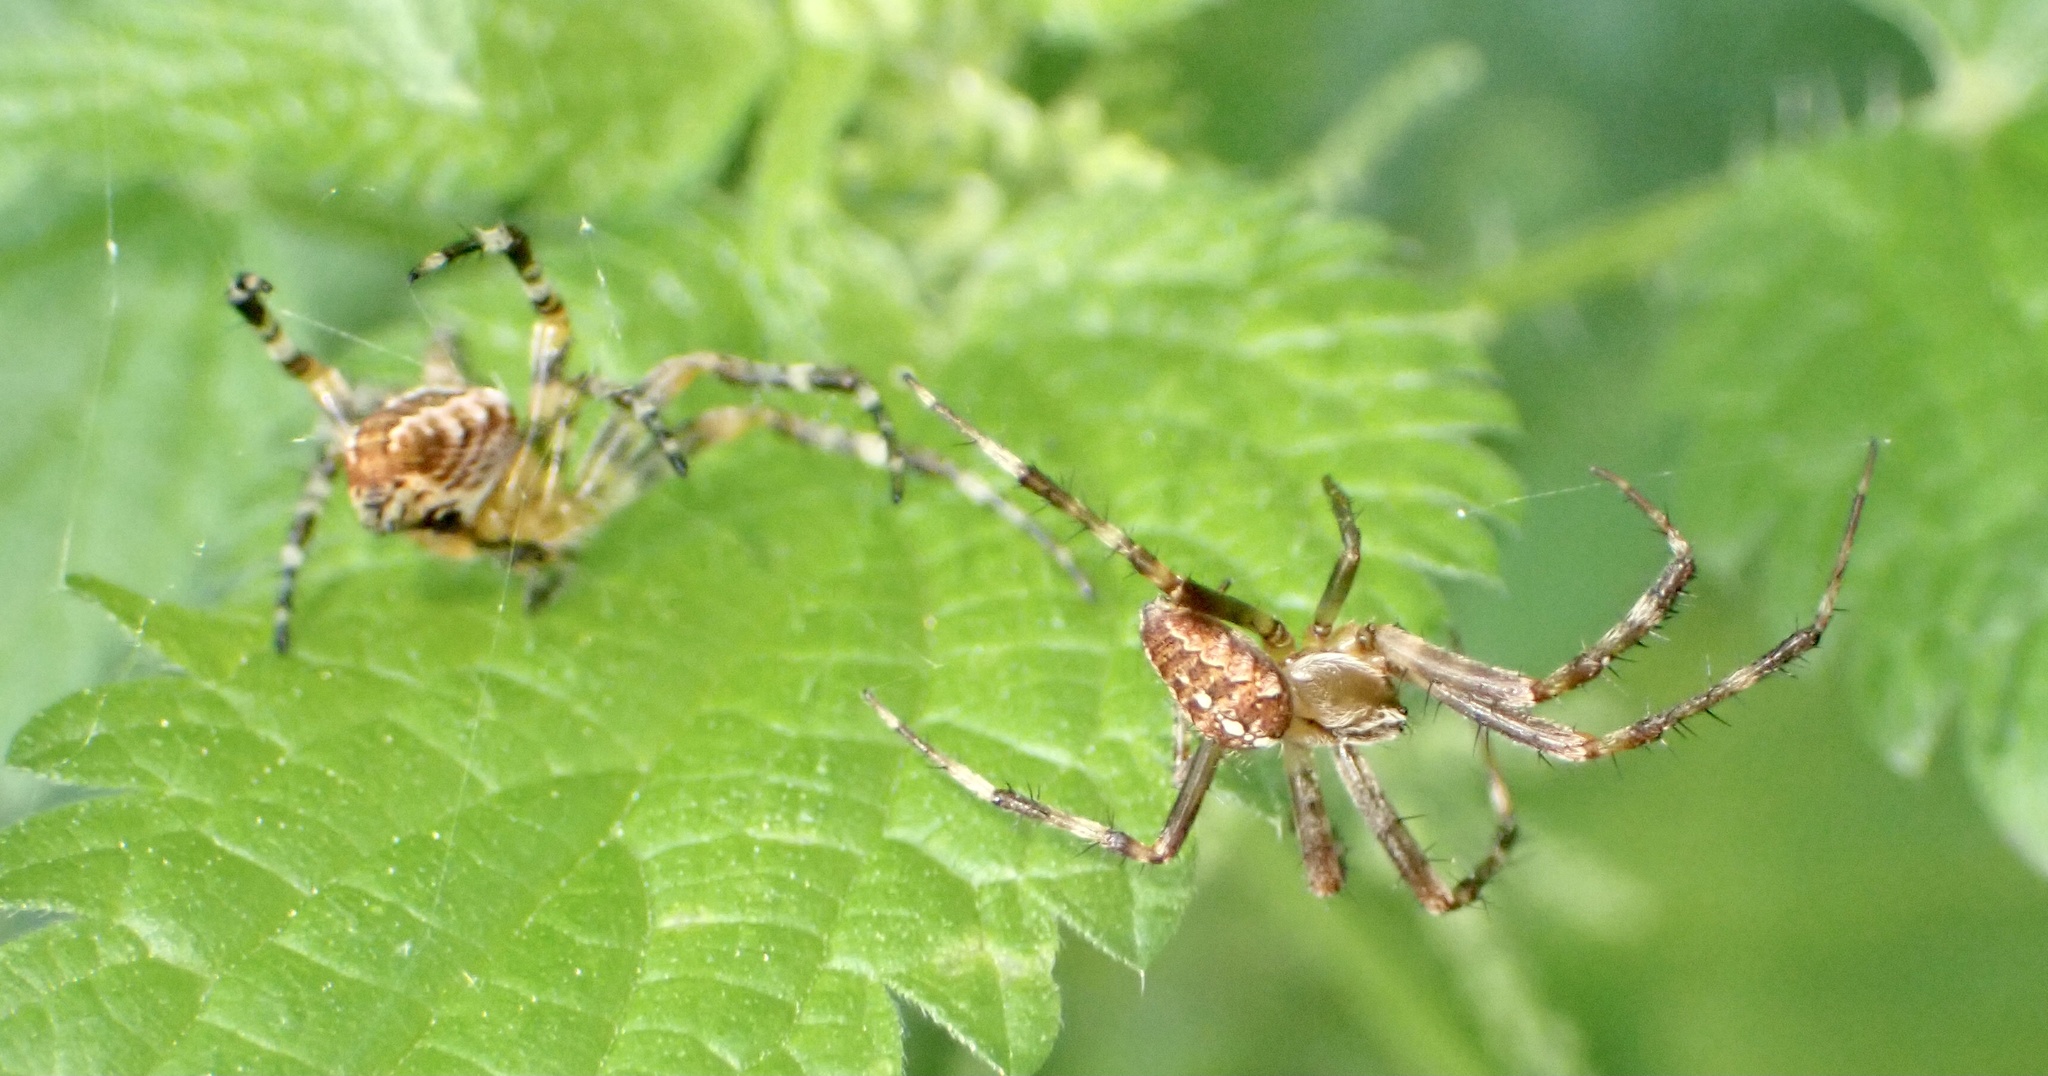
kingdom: Animalia
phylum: Arthropoda
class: Arachnida
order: Araneae
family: Araneidae
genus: Araneus
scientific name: Araneus diadematus
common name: Cross orbweaver
